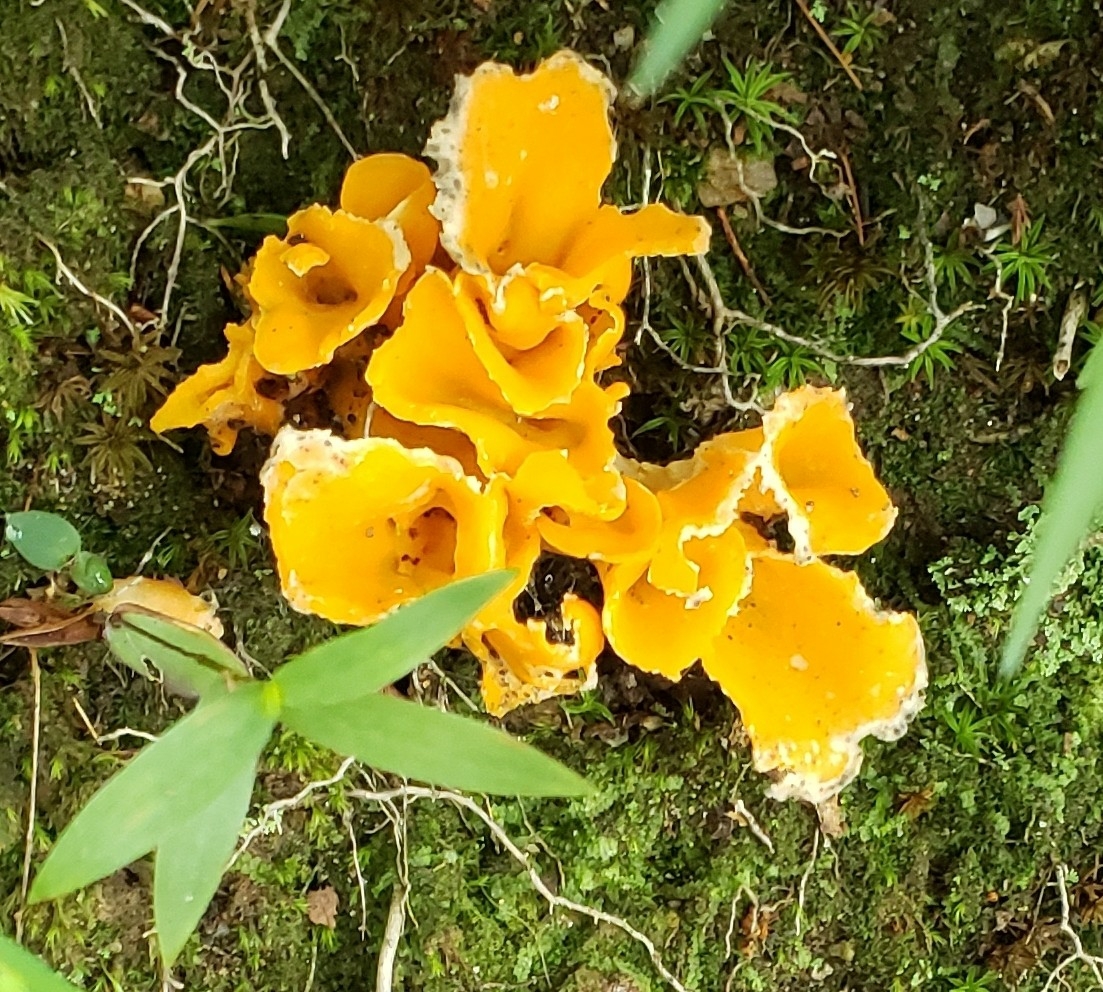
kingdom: Fungi
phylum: Basidiomycota
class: Agaricomycetes
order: Cantharellales
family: Hydnaceae
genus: Cantharellus
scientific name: Cantharellus lateritius
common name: Smooth chanterelle
